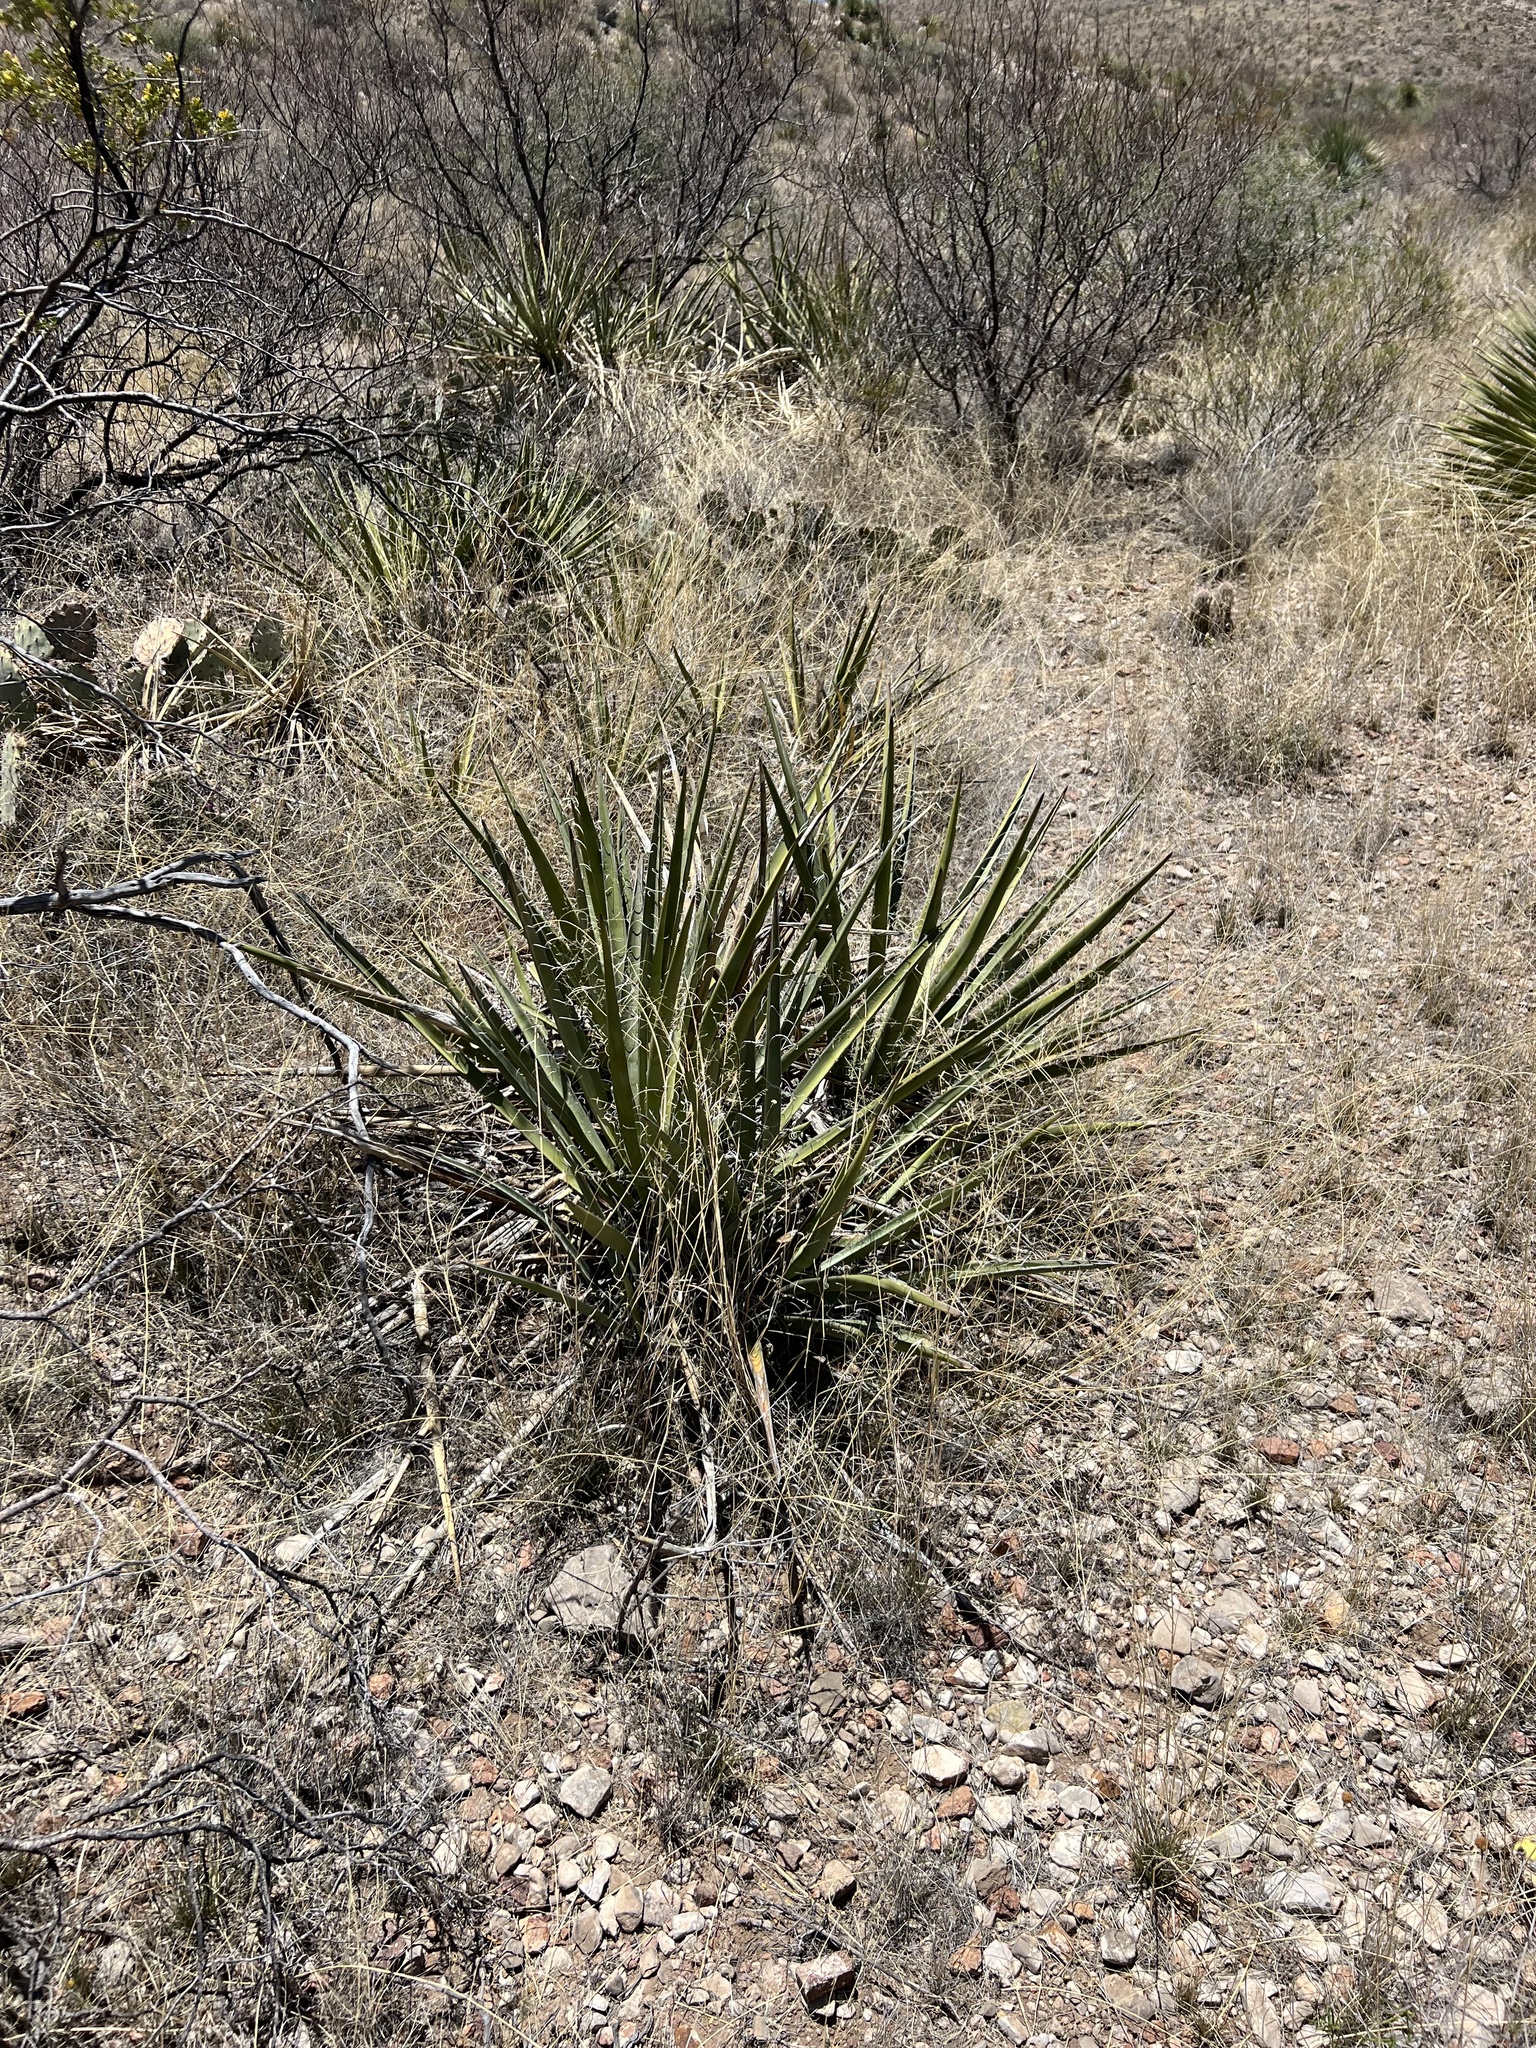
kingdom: Plantae
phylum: Tracheophyta
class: Liliopsida
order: Asparagales
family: Asparagaceae
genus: Yucca
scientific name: Yucca baccata
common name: Banana yucca
